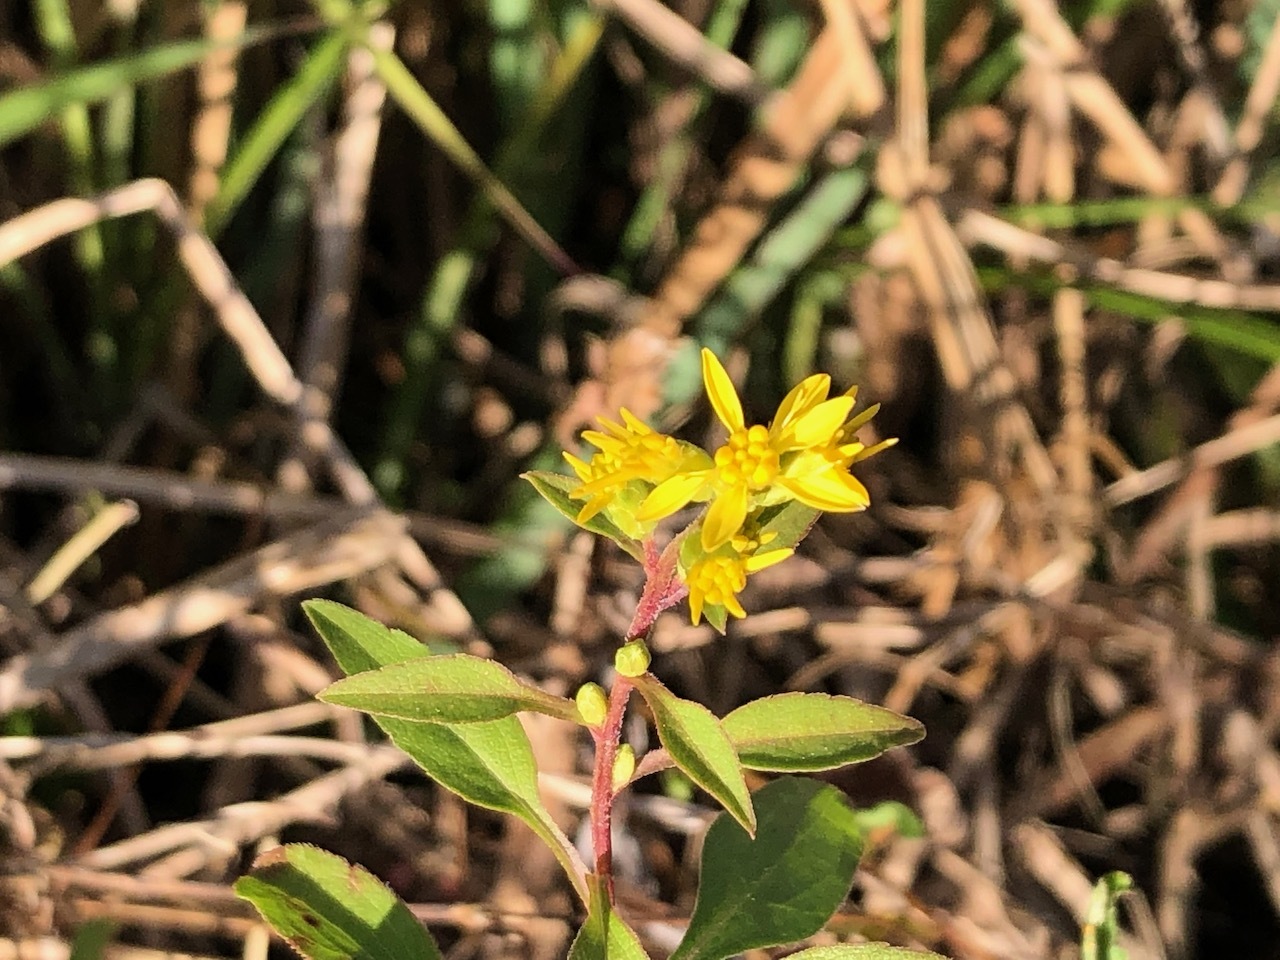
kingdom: Plantae
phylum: Tracheophyta
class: Magnoliopsida
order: Asterales
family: Asteraceae
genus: Solidago
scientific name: Solidago virgaurea
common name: Goldenrod
